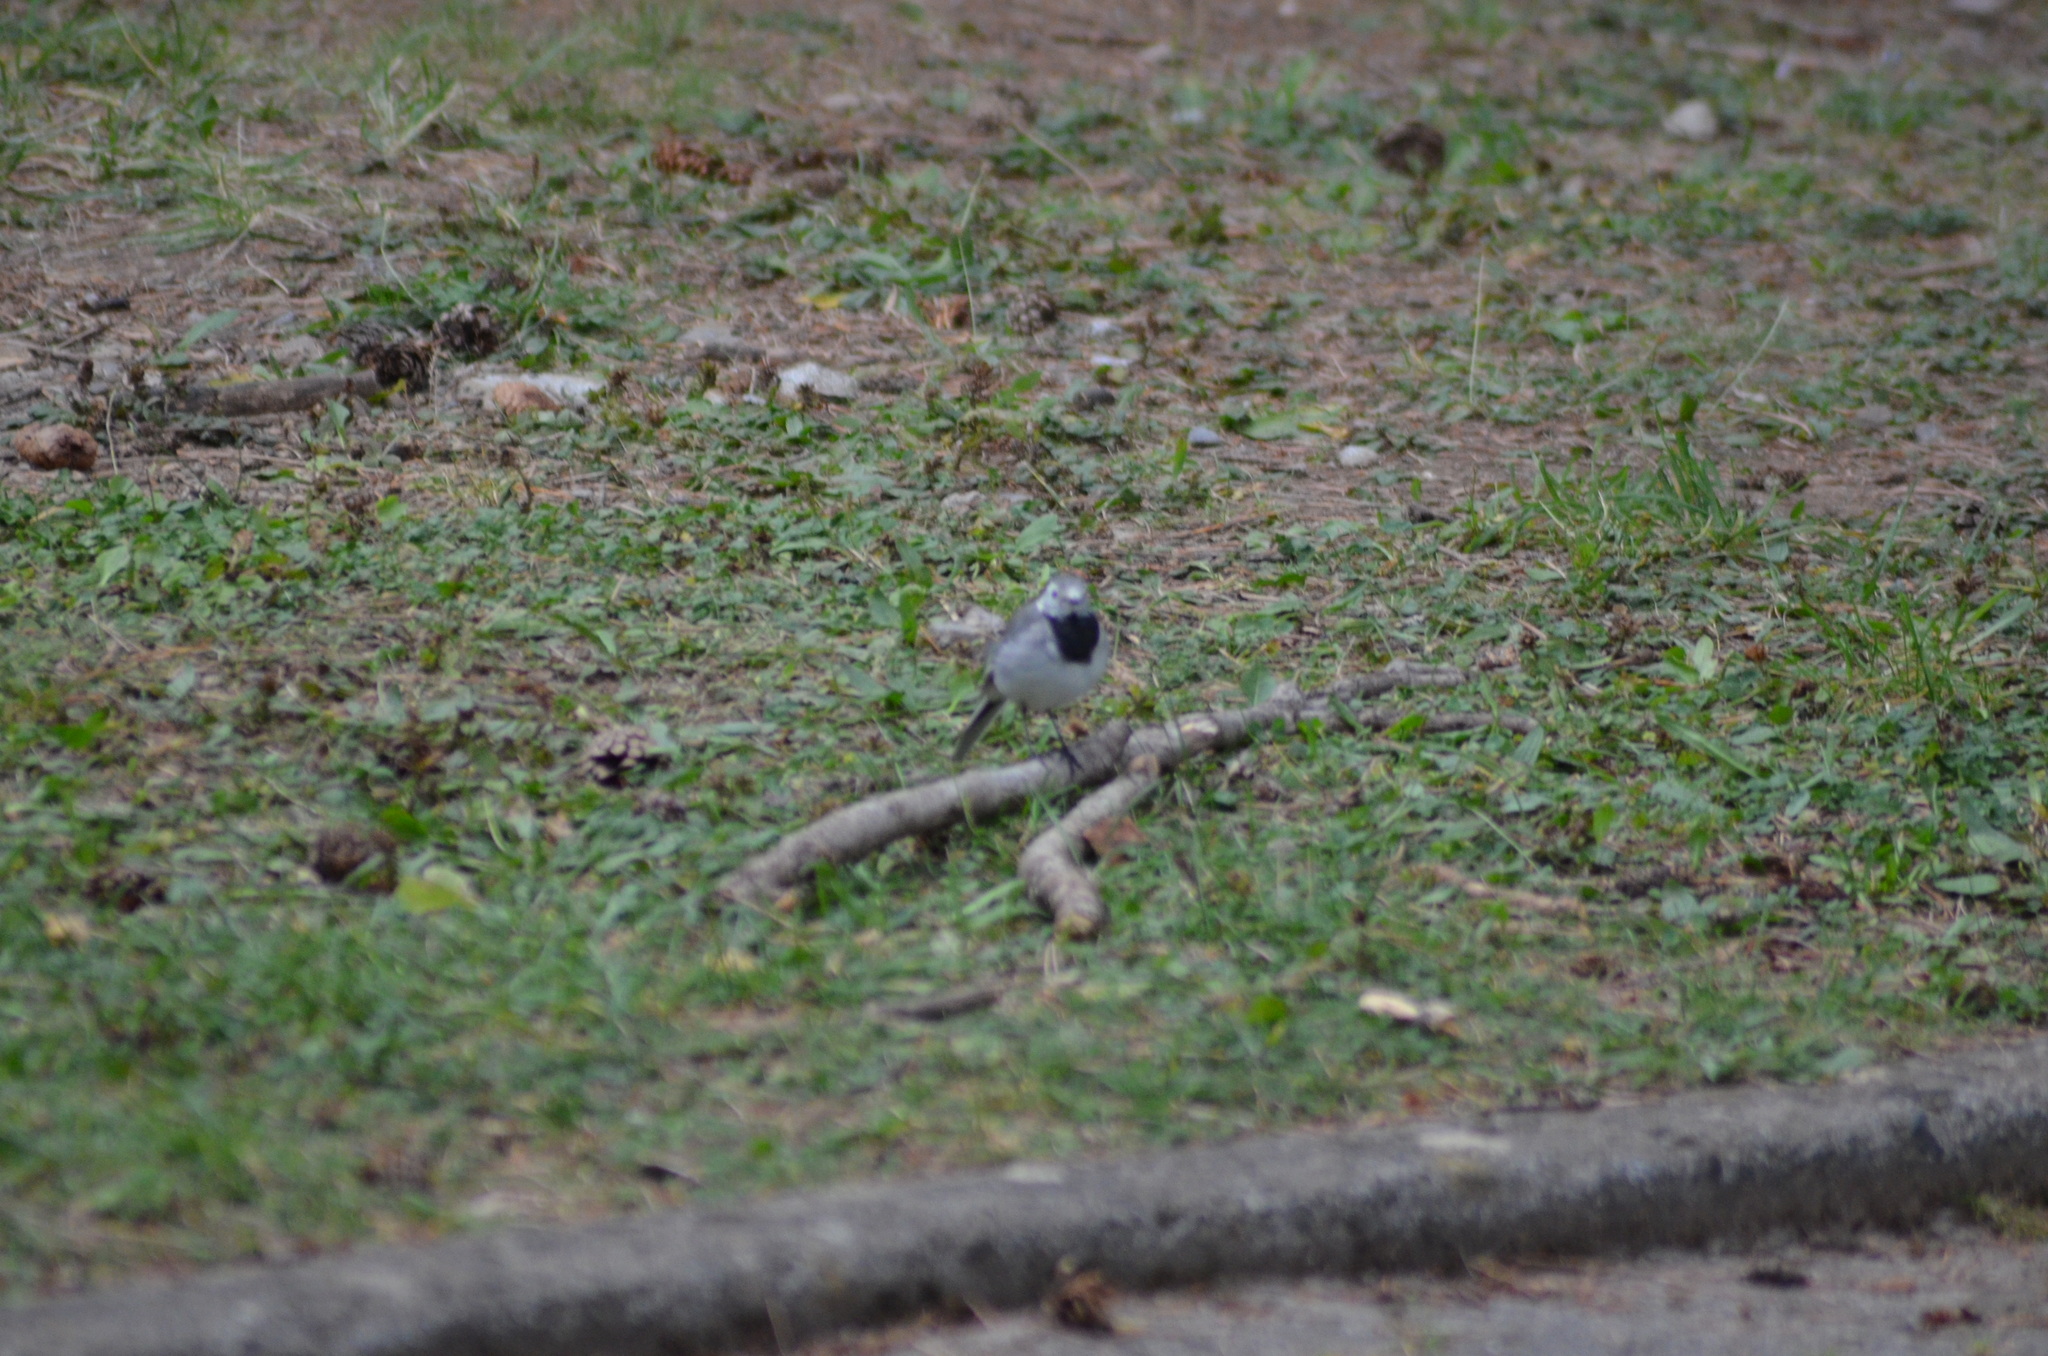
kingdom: Animalia
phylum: Chordata
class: Aves
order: Passeriformes
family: Motacillidae
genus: Motacilla
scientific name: Motacilla alba
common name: White wagtail
